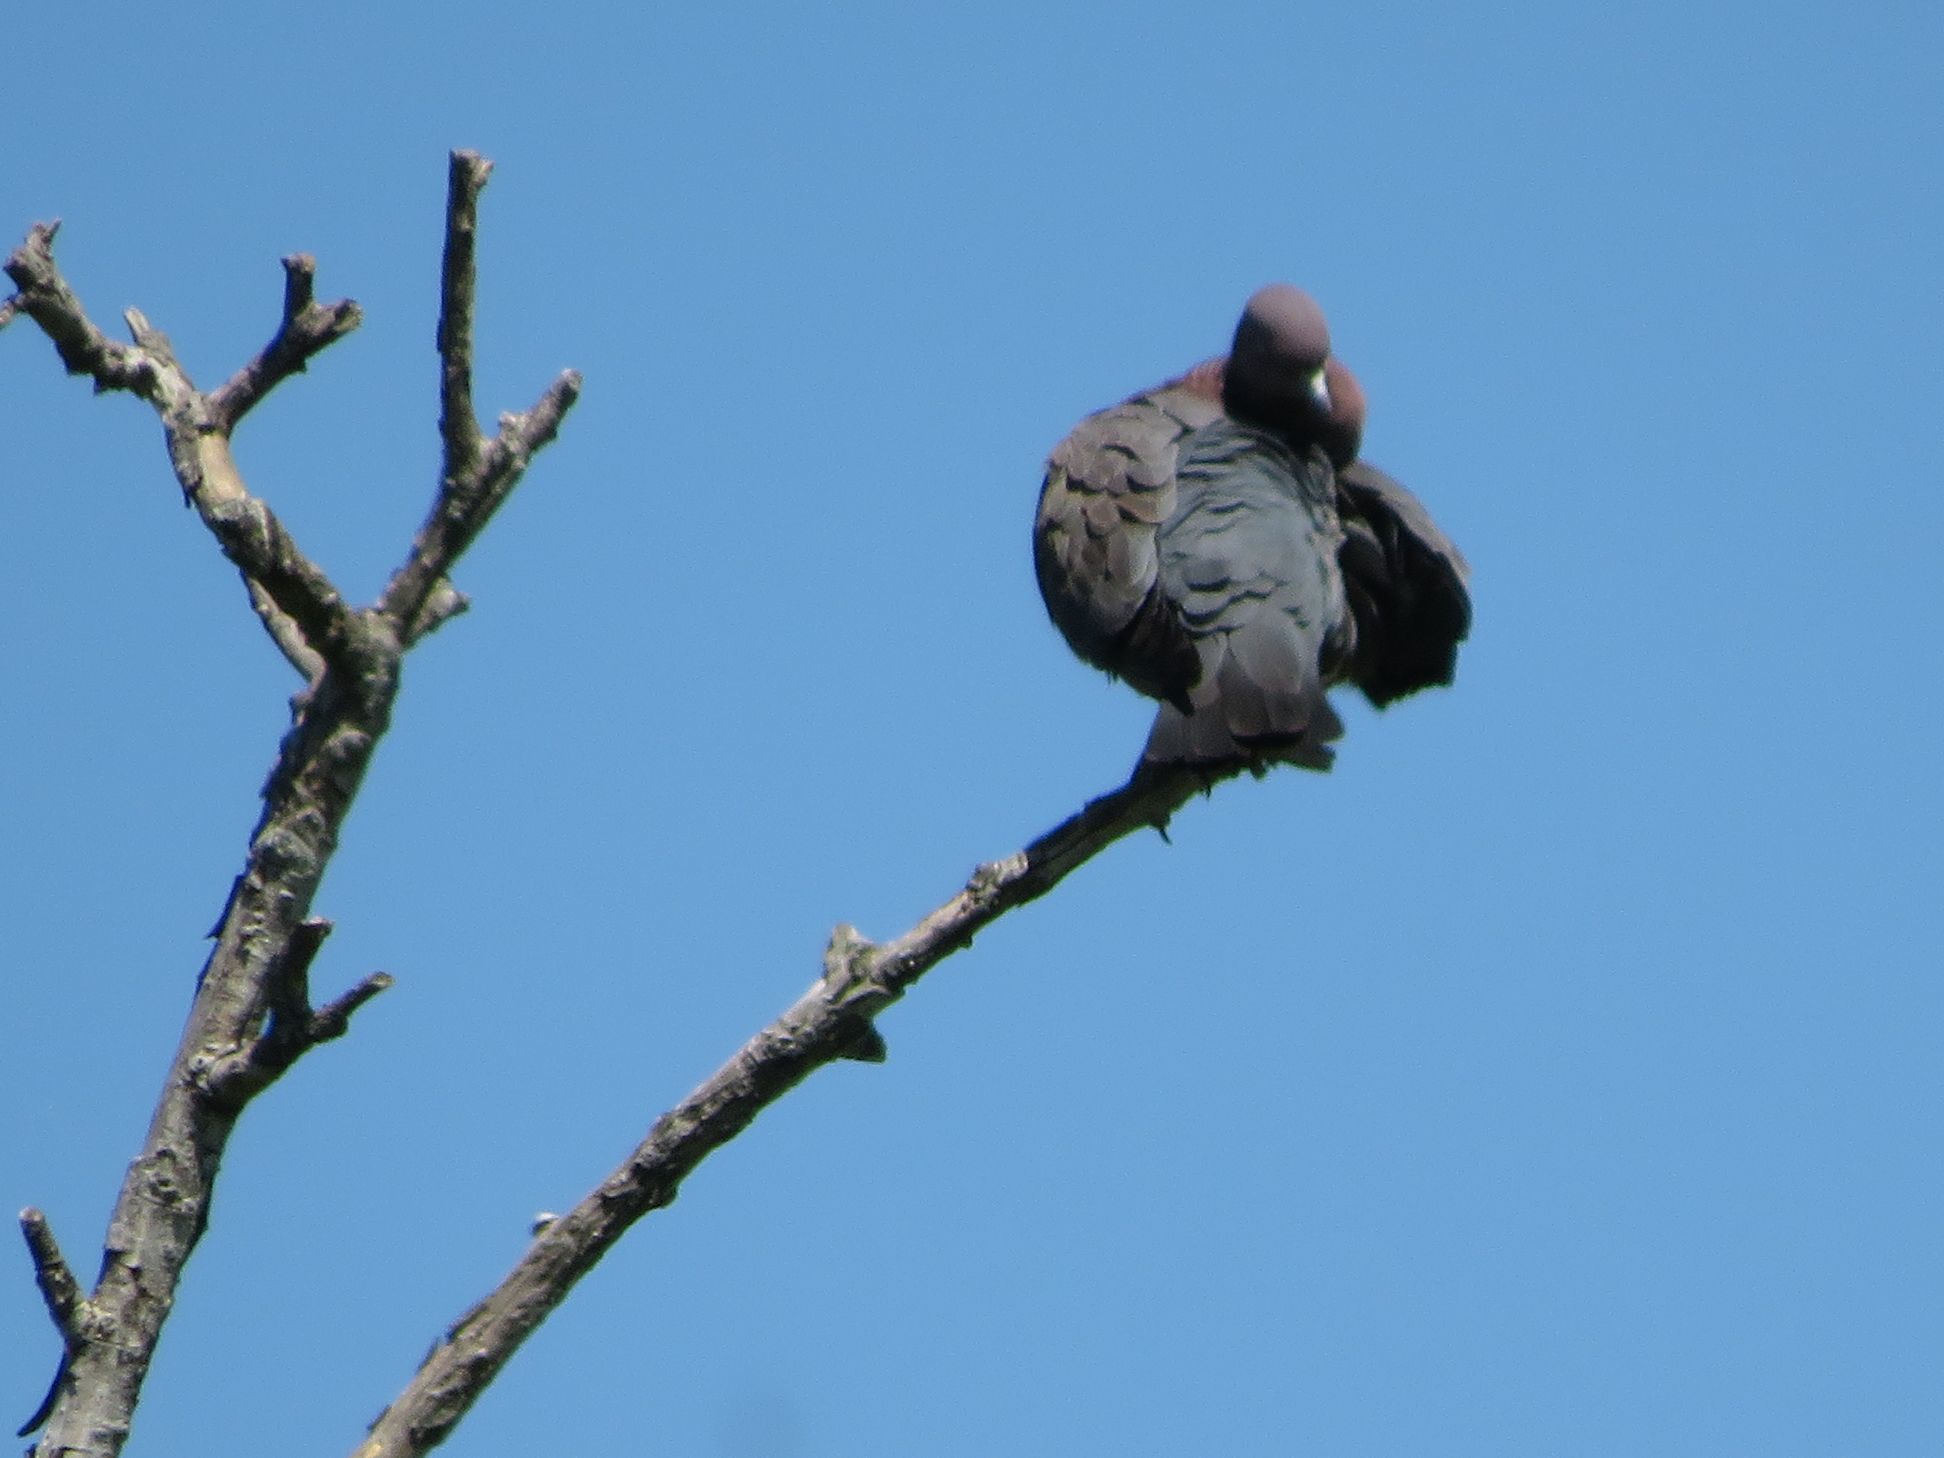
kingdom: Animalia
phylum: Chordata
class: Aves
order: Columbiformes
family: Columbidae
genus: Patagioenas
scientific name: Patagioenas picazuro
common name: Picazuro pigeon
